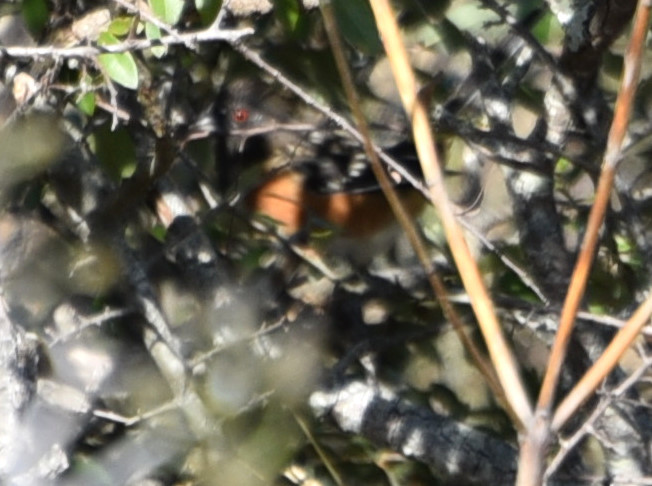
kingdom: Animalia
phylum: Chordata
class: Aves
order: Passeriformes
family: Passerellidae
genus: Pipilo
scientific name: Pipilo maculatus
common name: Spotted towhee
